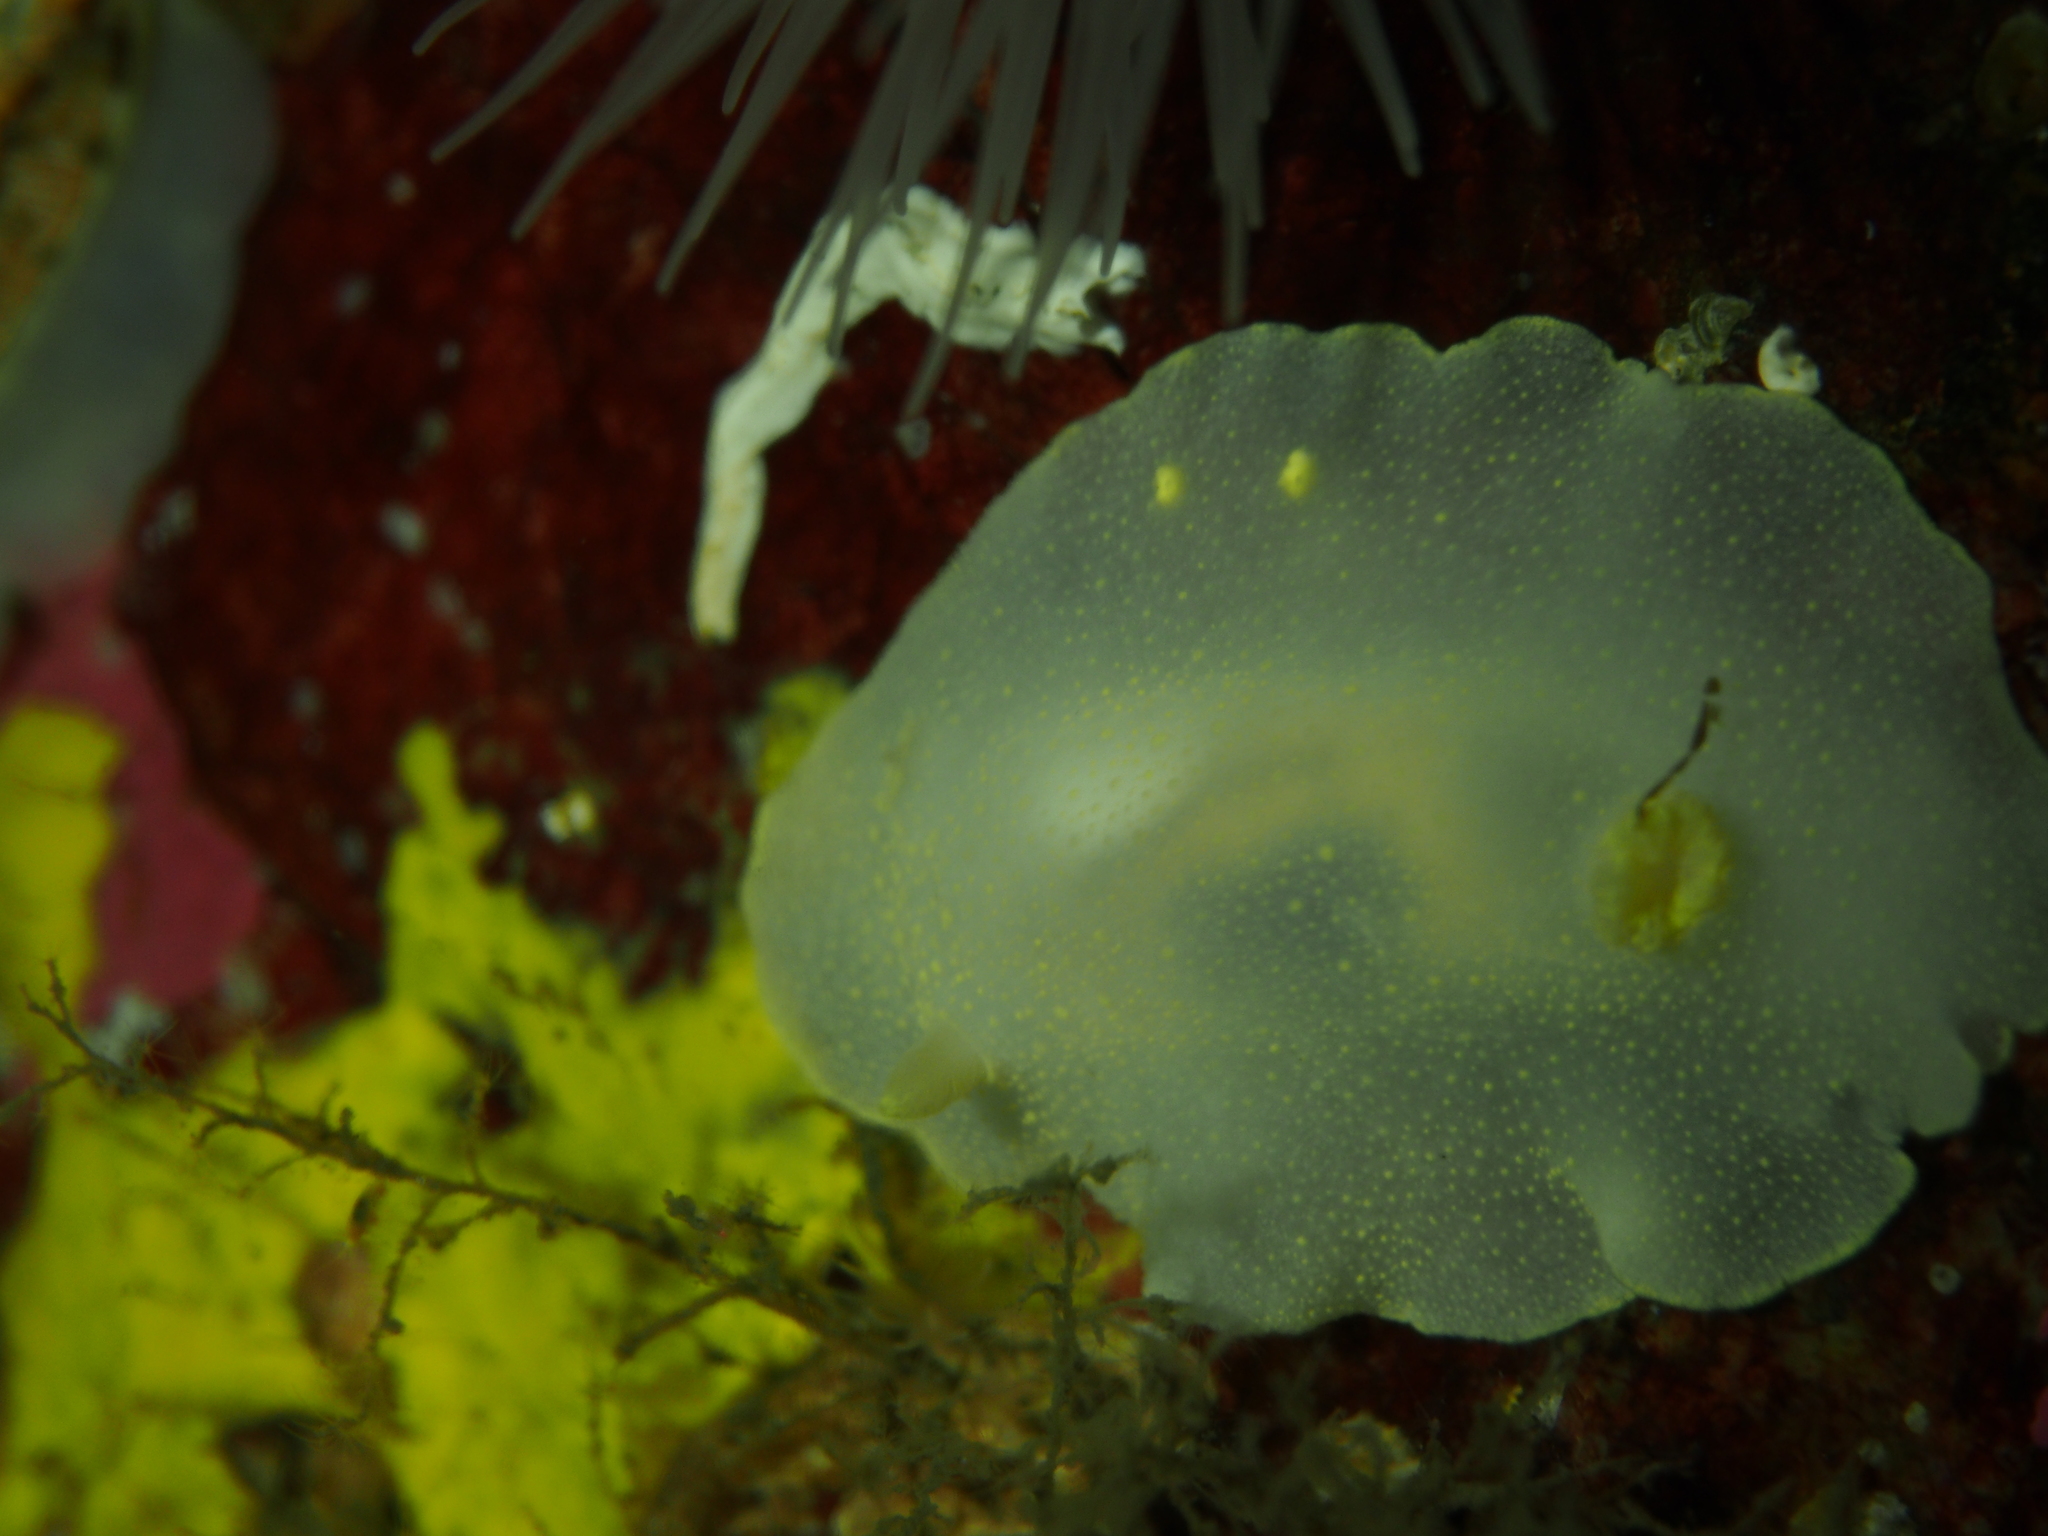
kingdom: Animalia
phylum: Mollusca
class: Gastropoda
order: Nudibranchia
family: Cadlinidae
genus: Cadlina
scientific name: Cadlina laevis
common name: White atlantic cadlina
